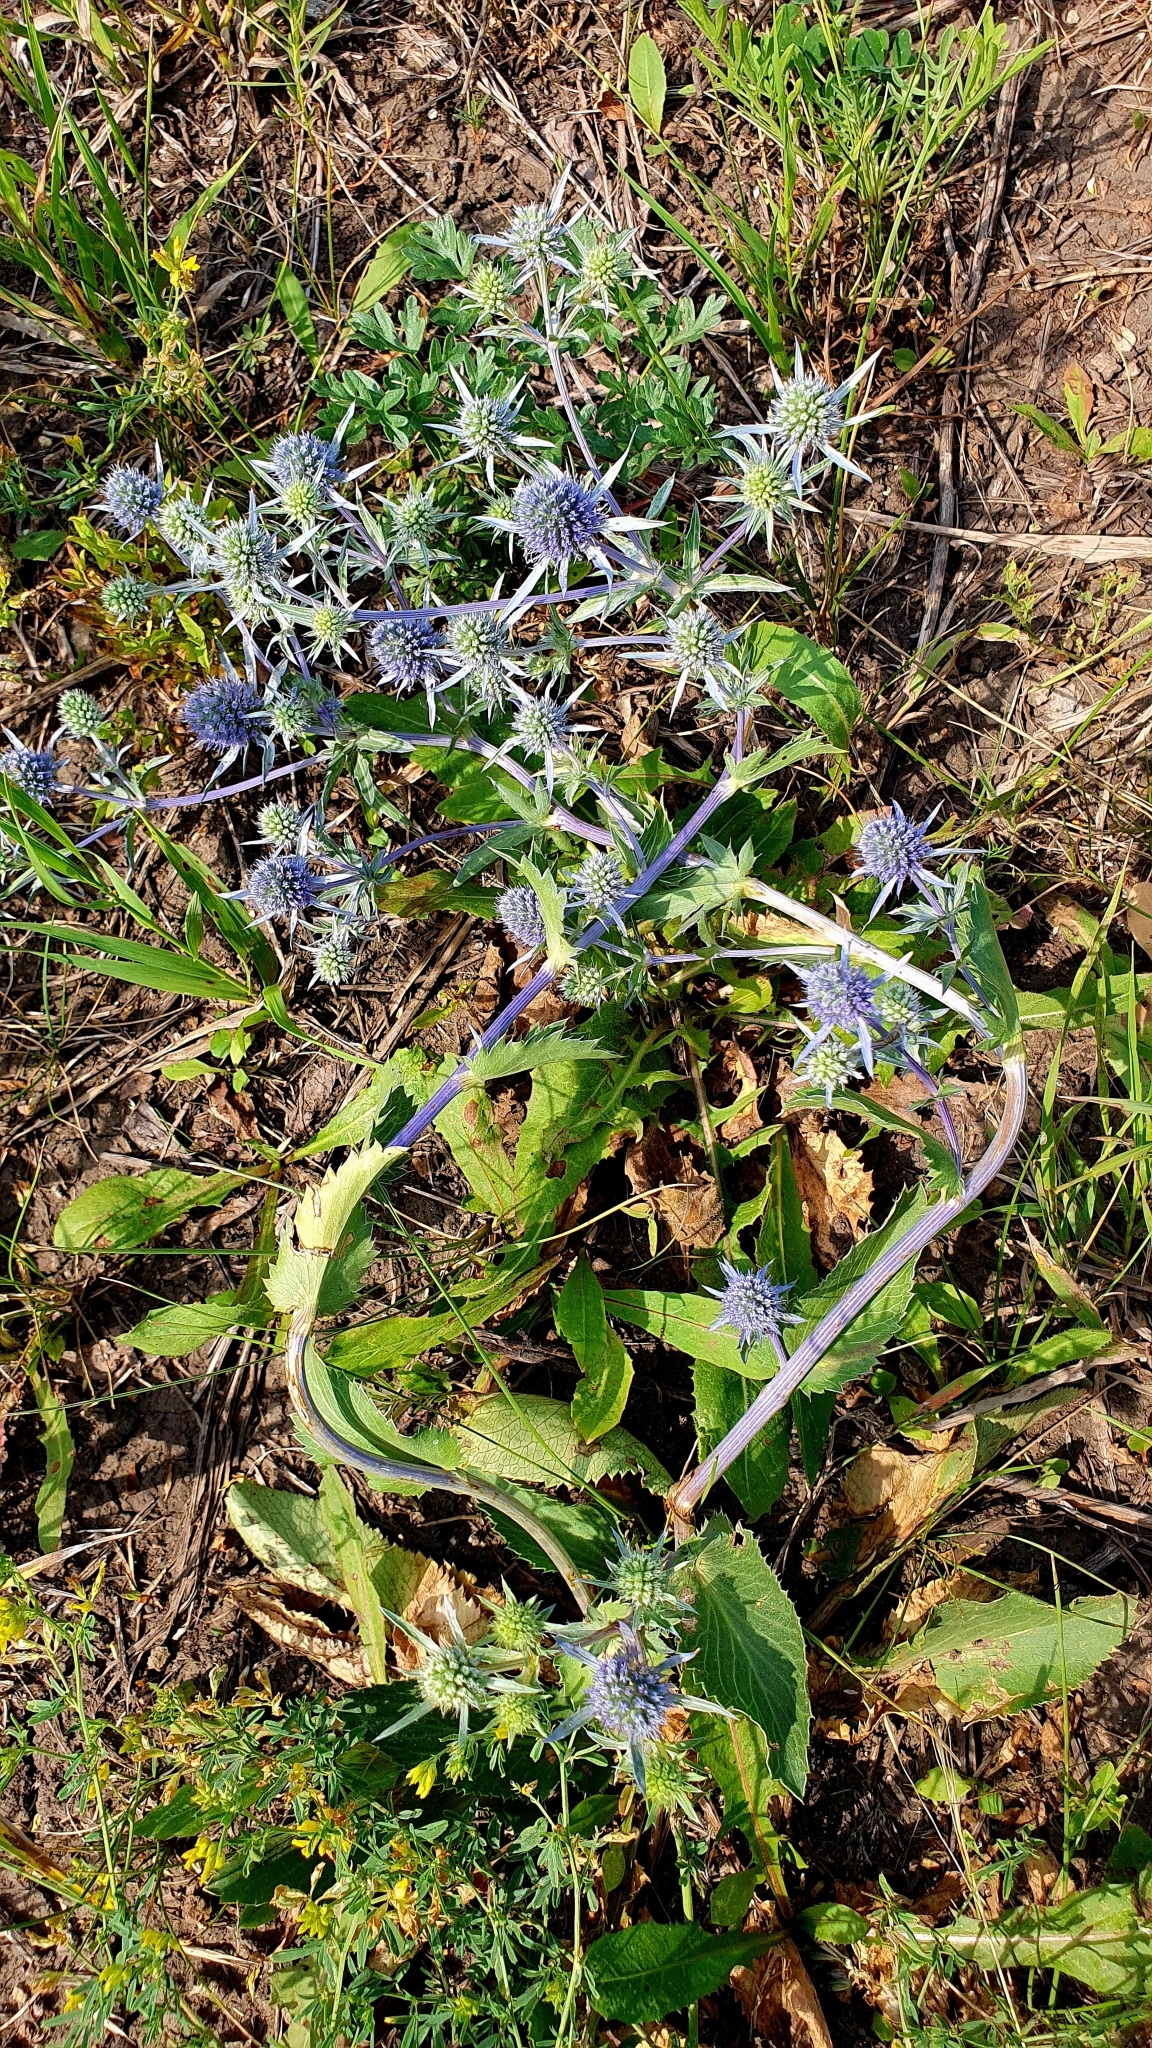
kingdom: Plantae
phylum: Tracheophyta
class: Magnoliopsida
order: Apiales
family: Apiaceae
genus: Eryngium
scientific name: Eryngium planum
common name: Blue eryngo
